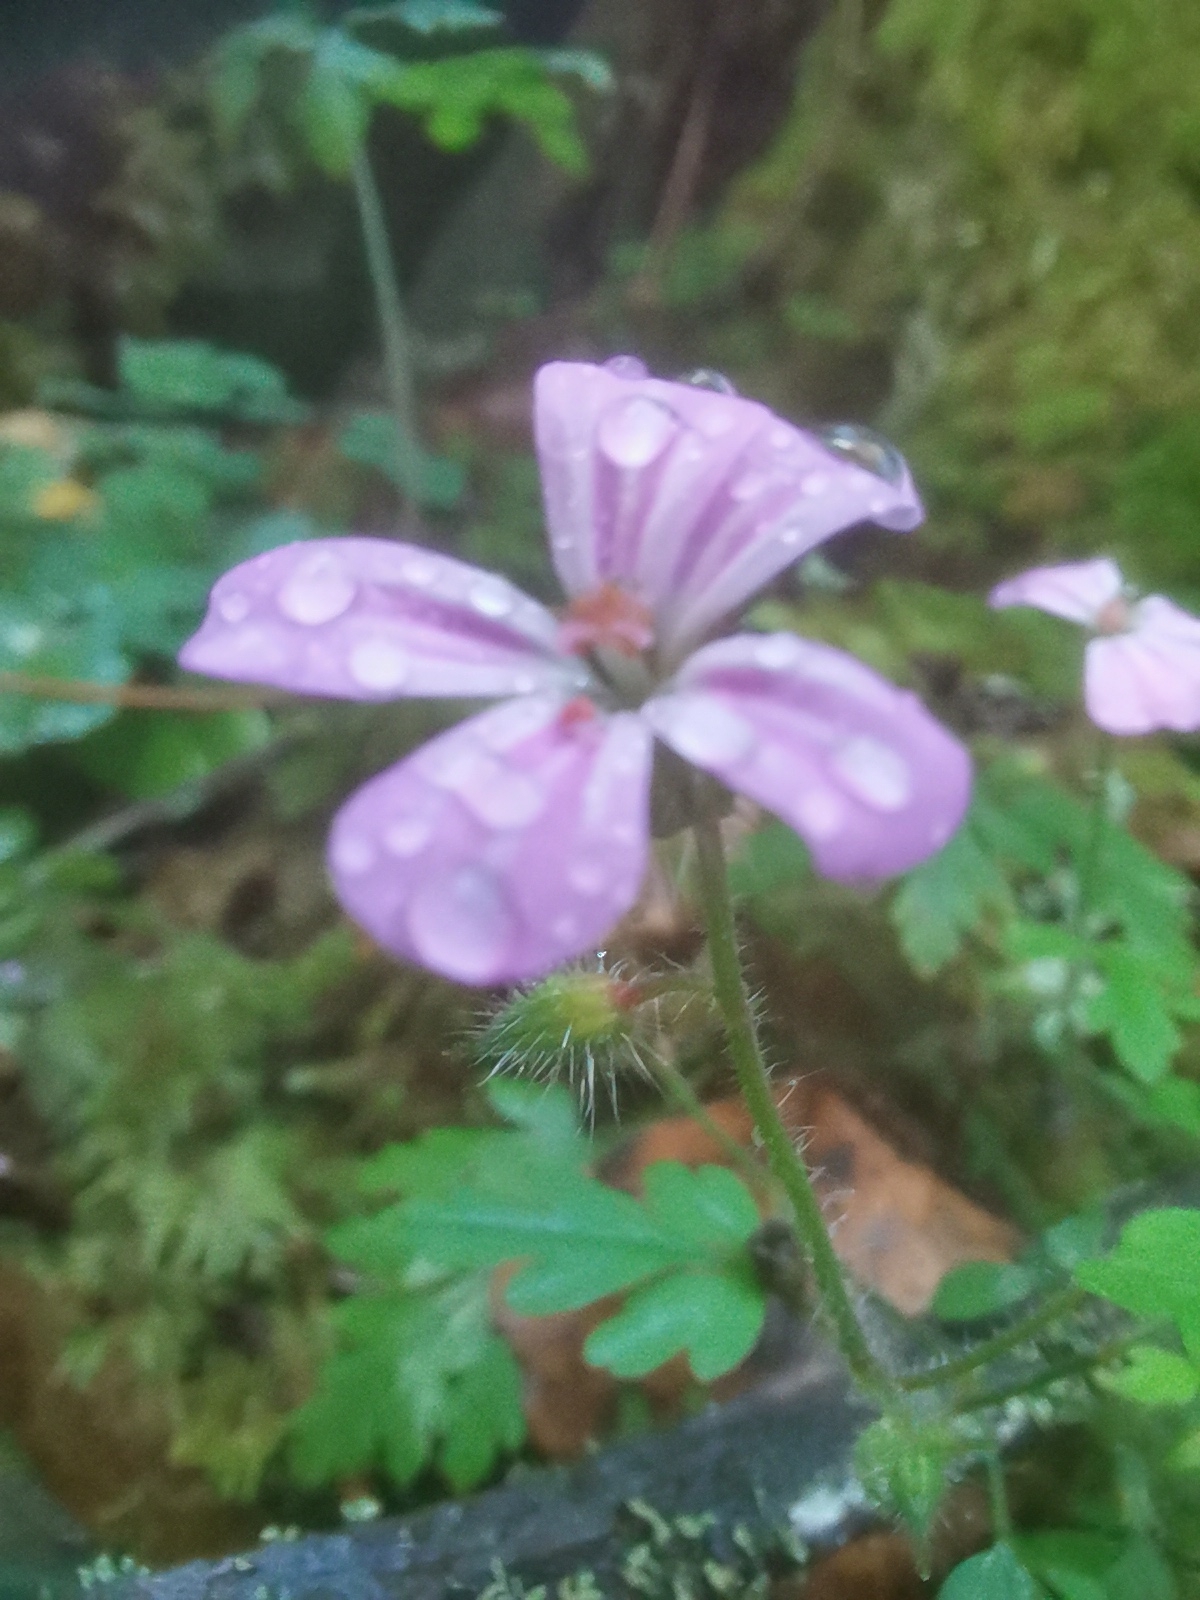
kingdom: Plantae
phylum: Tracheophyta
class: Magnoliopsida
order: Geraniales
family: Geraniaceae
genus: Geranium
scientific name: Geranium robertianum
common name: Herb-robert
